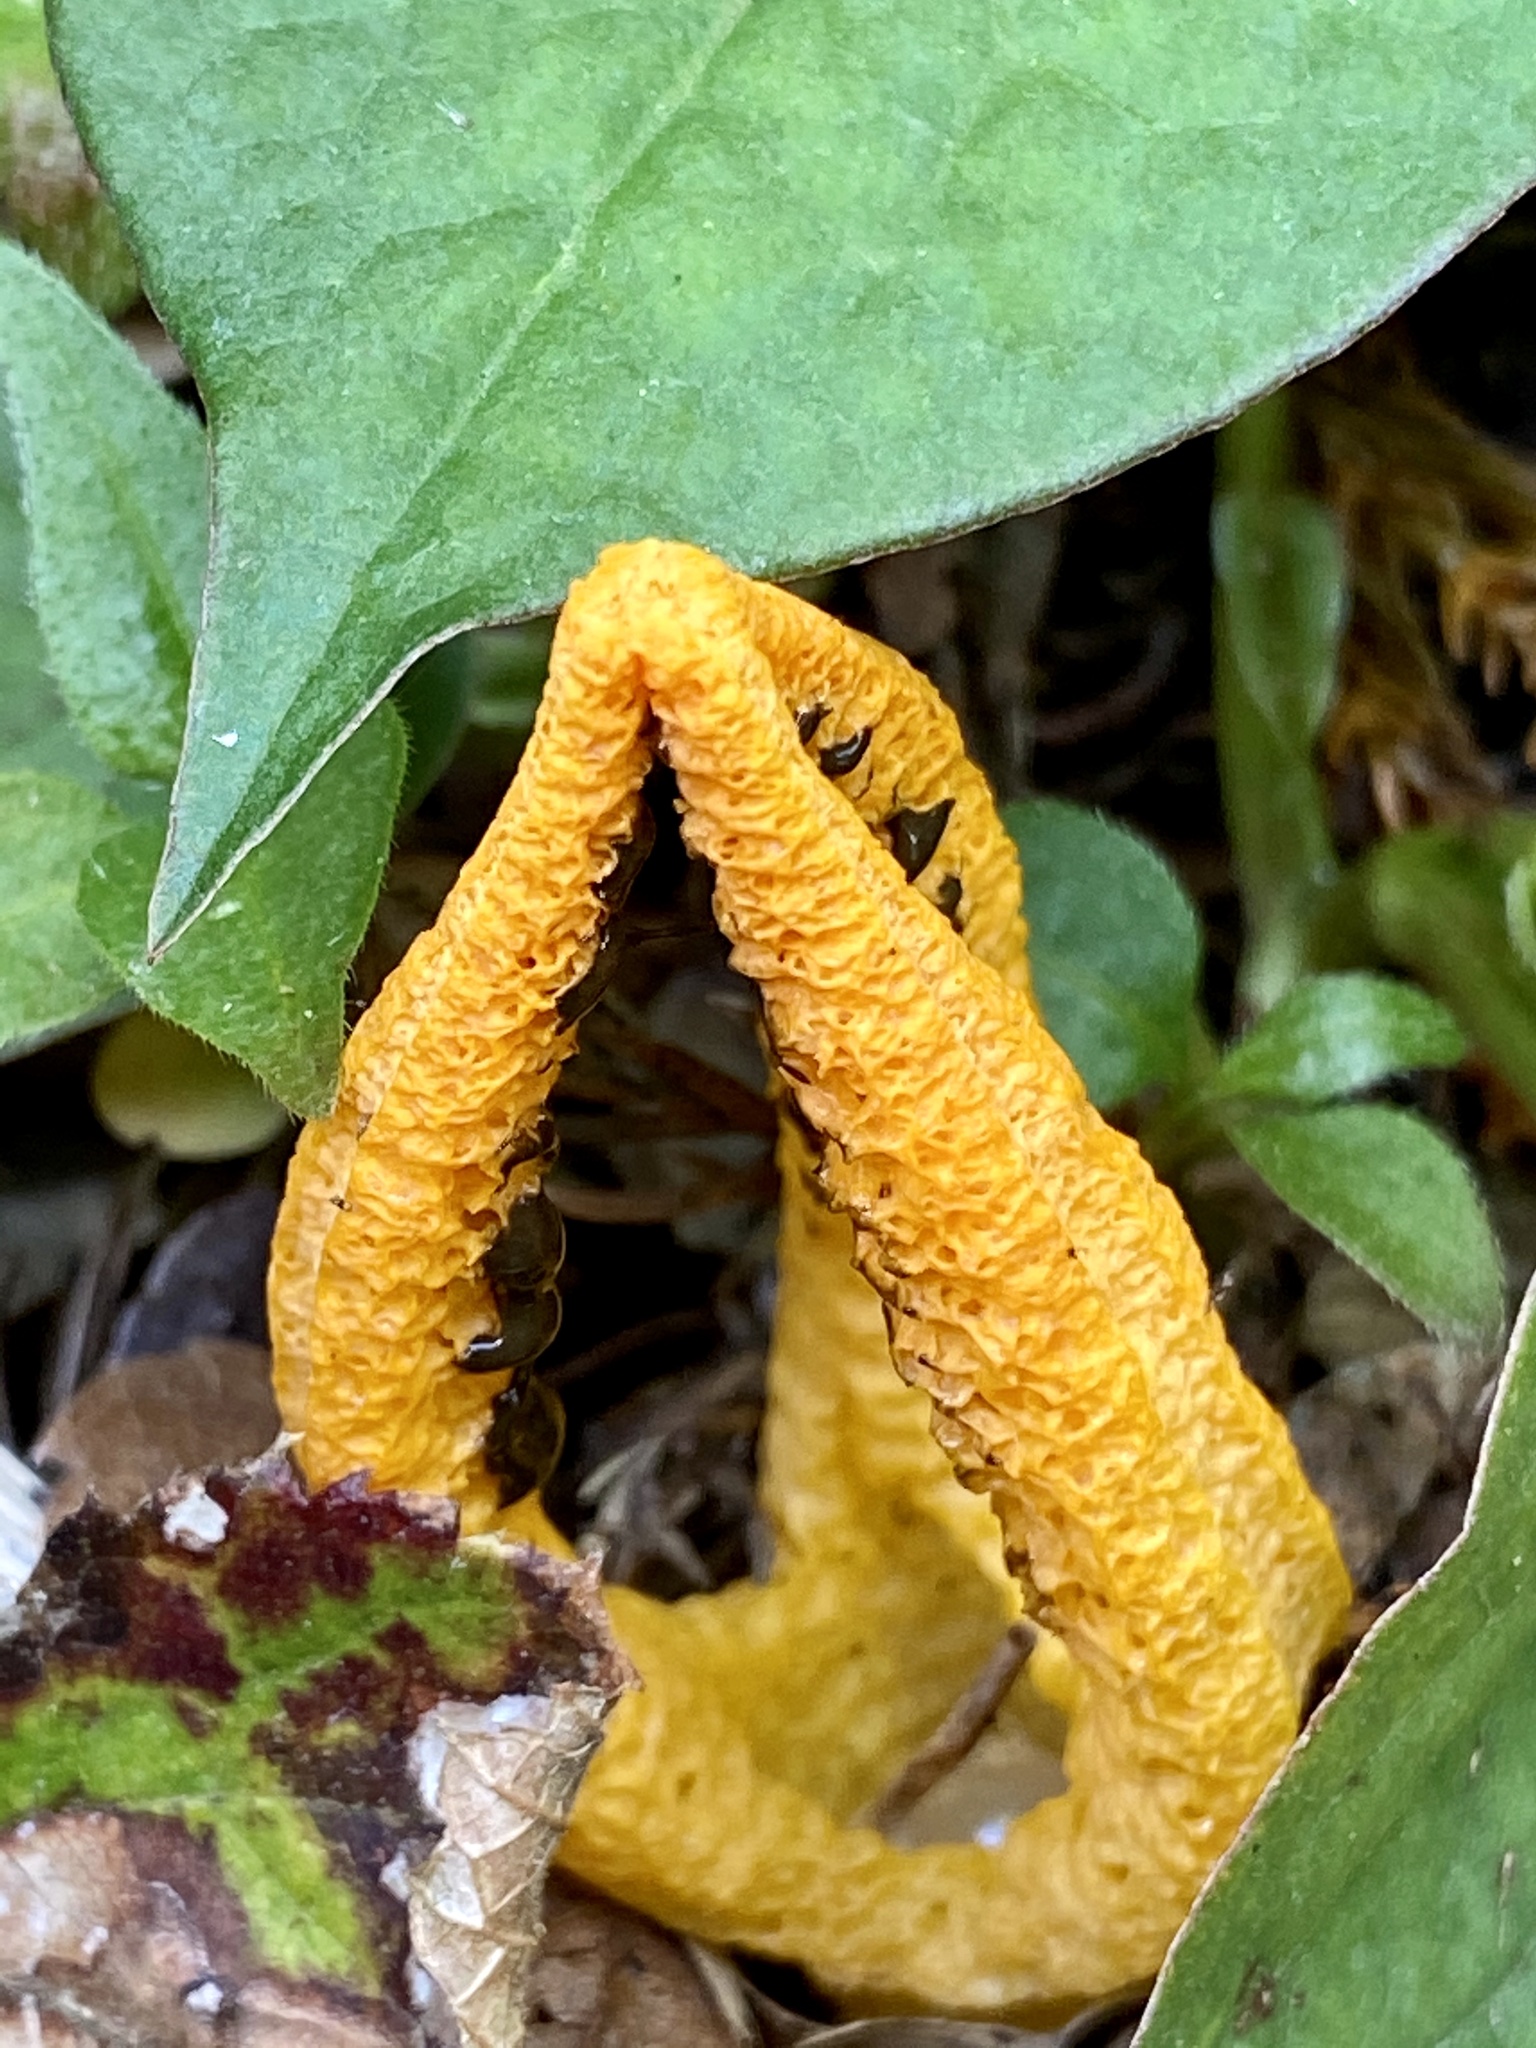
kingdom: Fungi
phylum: Basidiomycota
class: Agaricomycetes
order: Phallales
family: Phallaceae
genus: Pseudocolus
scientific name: Pseudocolus fusiformis
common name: Stinky squid
